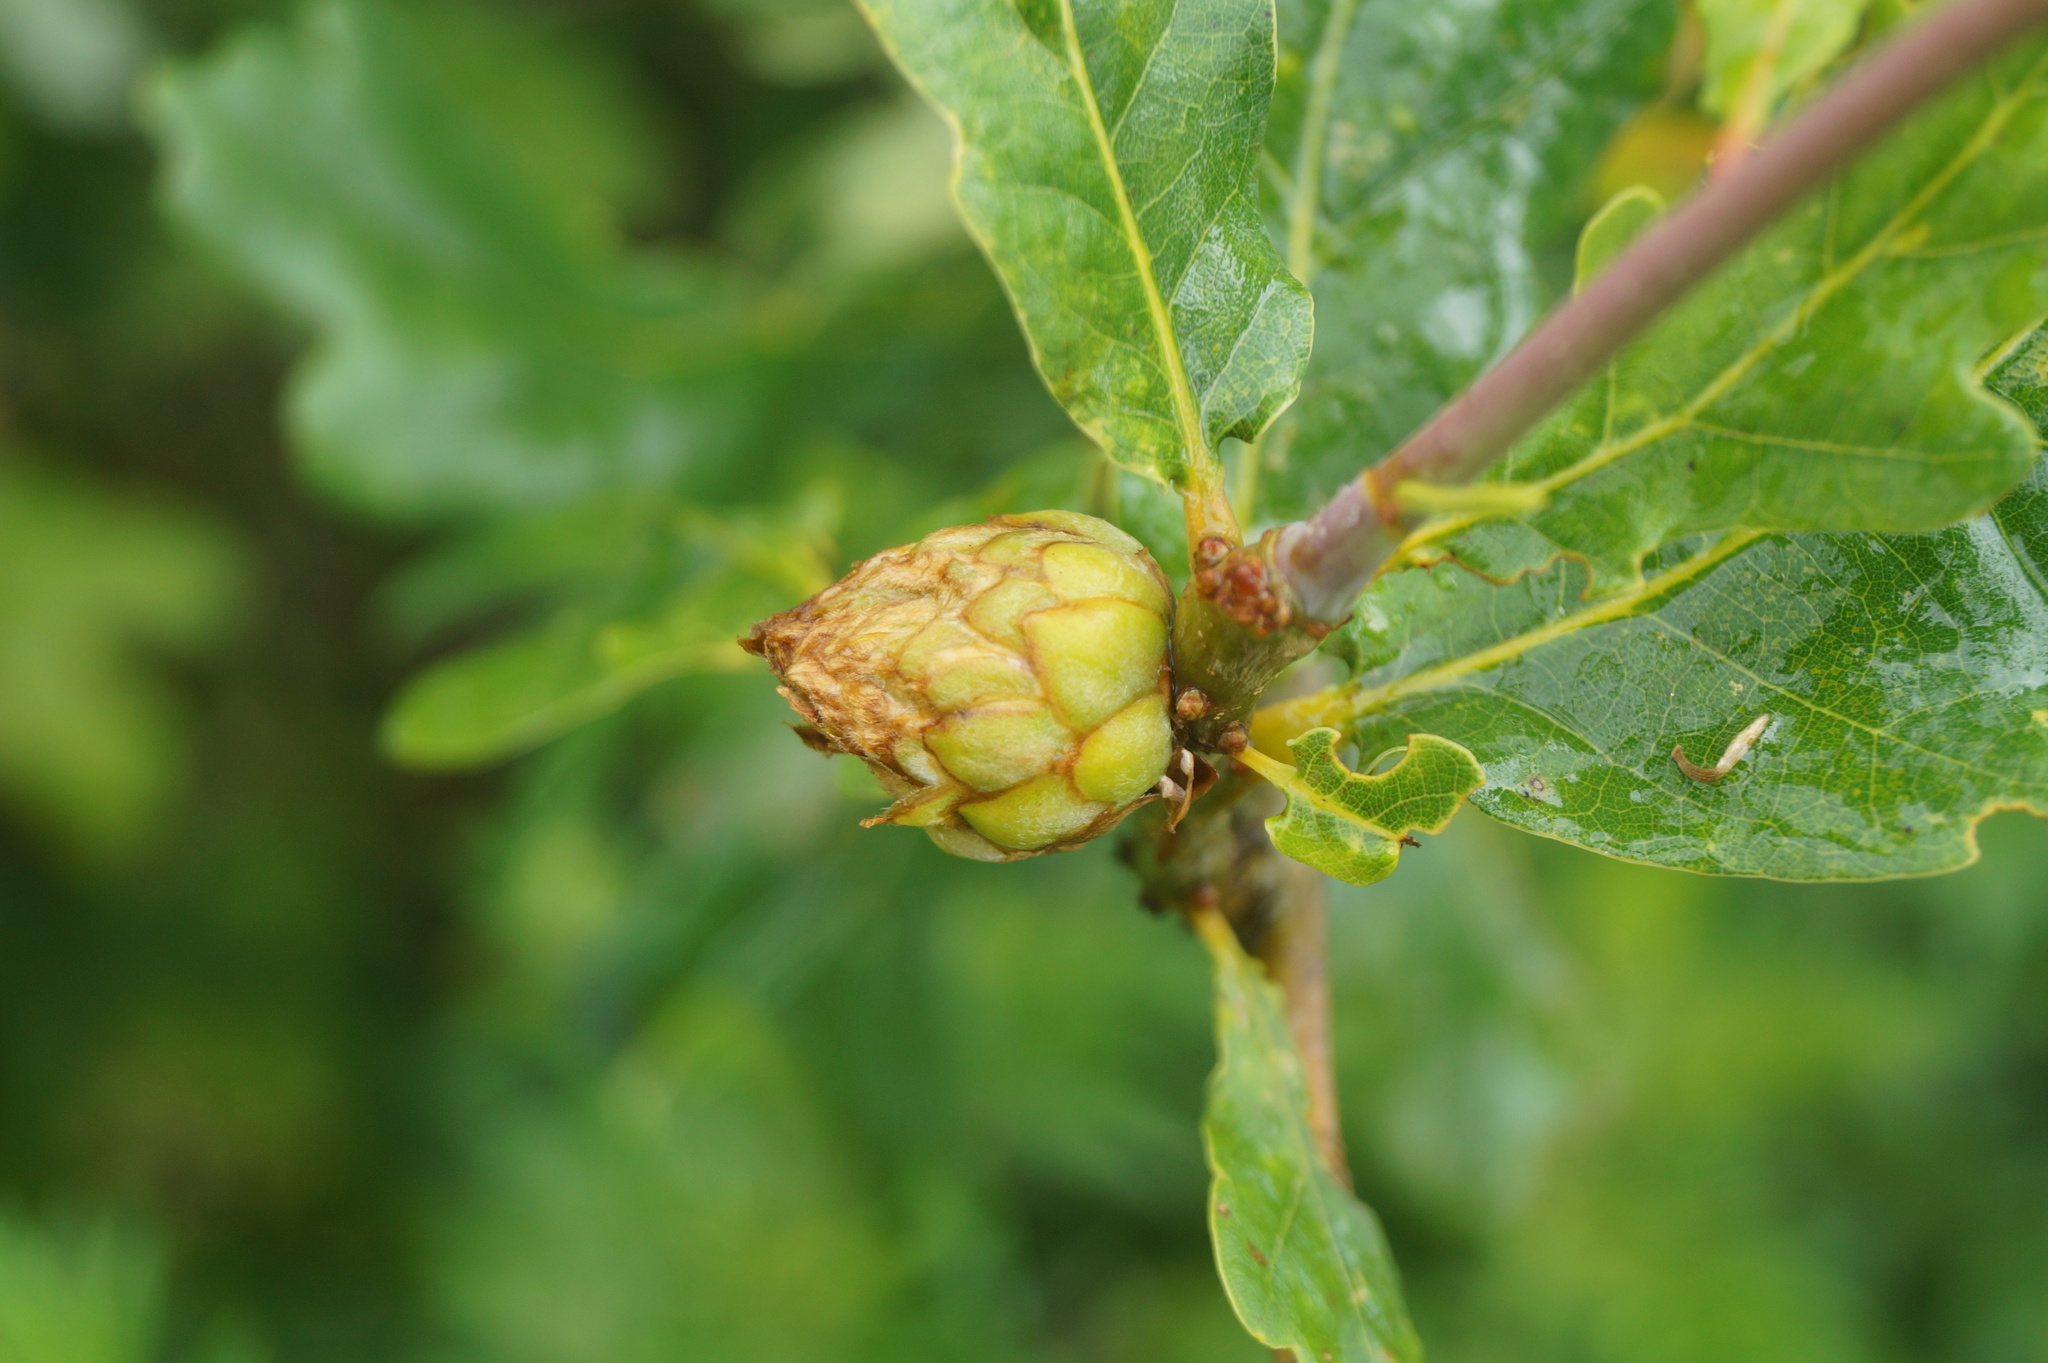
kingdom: Animalia
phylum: Arthropoda
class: Insecta
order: Hymenoptera
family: Cynipidae
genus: Andricus
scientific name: Andricus foecundatrix
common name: Artichoke gall
